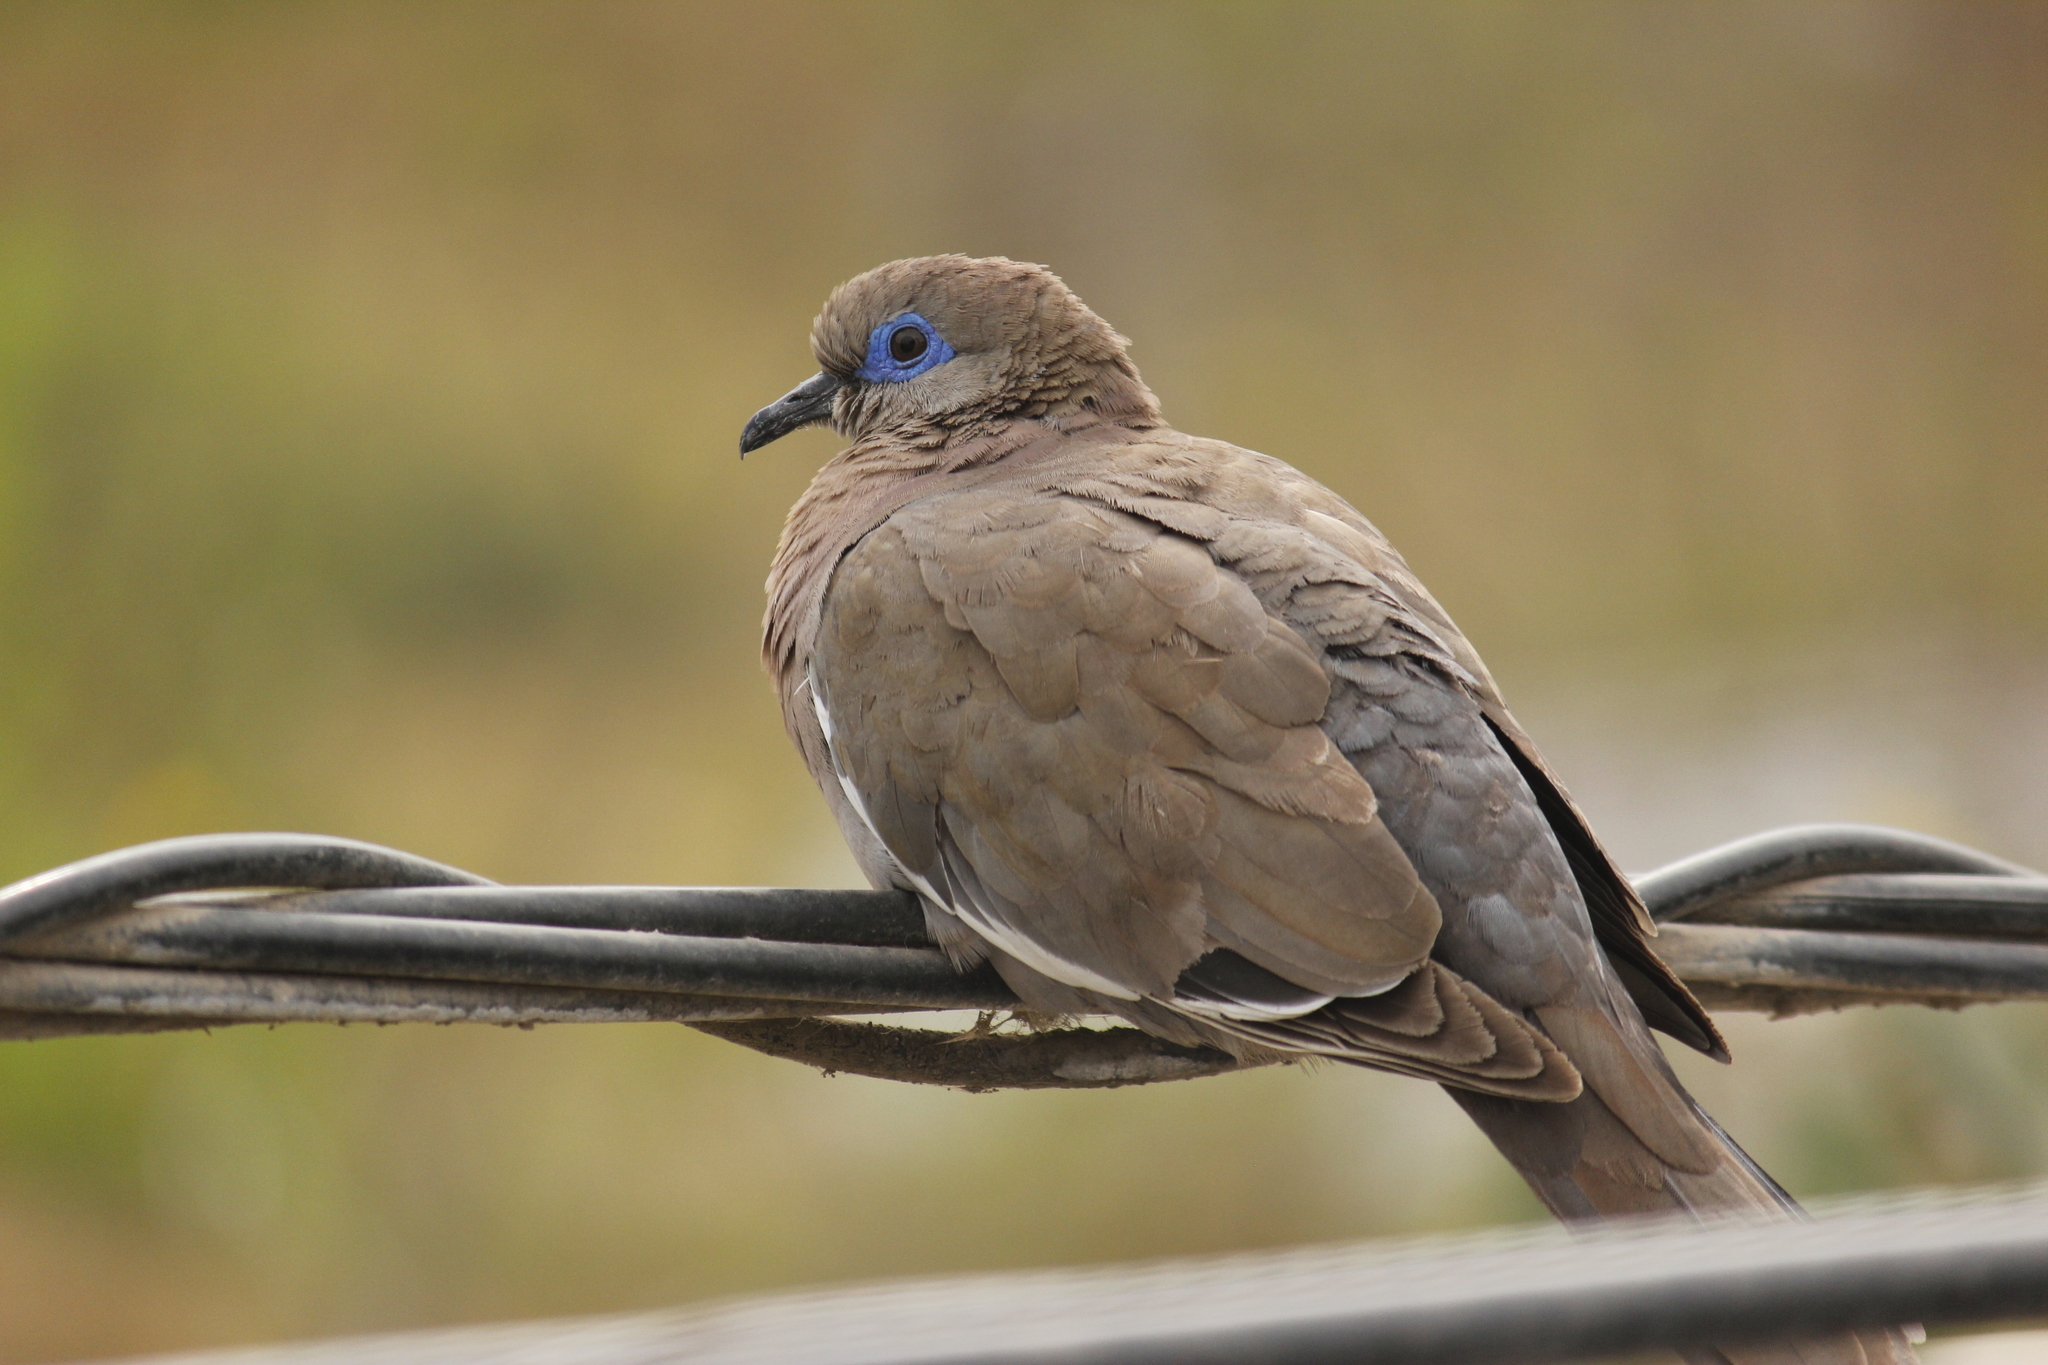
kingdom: Animalia
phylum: Chordata
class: Aves
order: Columbiformes
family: Columbidae
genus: Zenaida
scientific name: Zenaida meloda
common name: West peruvian dove
